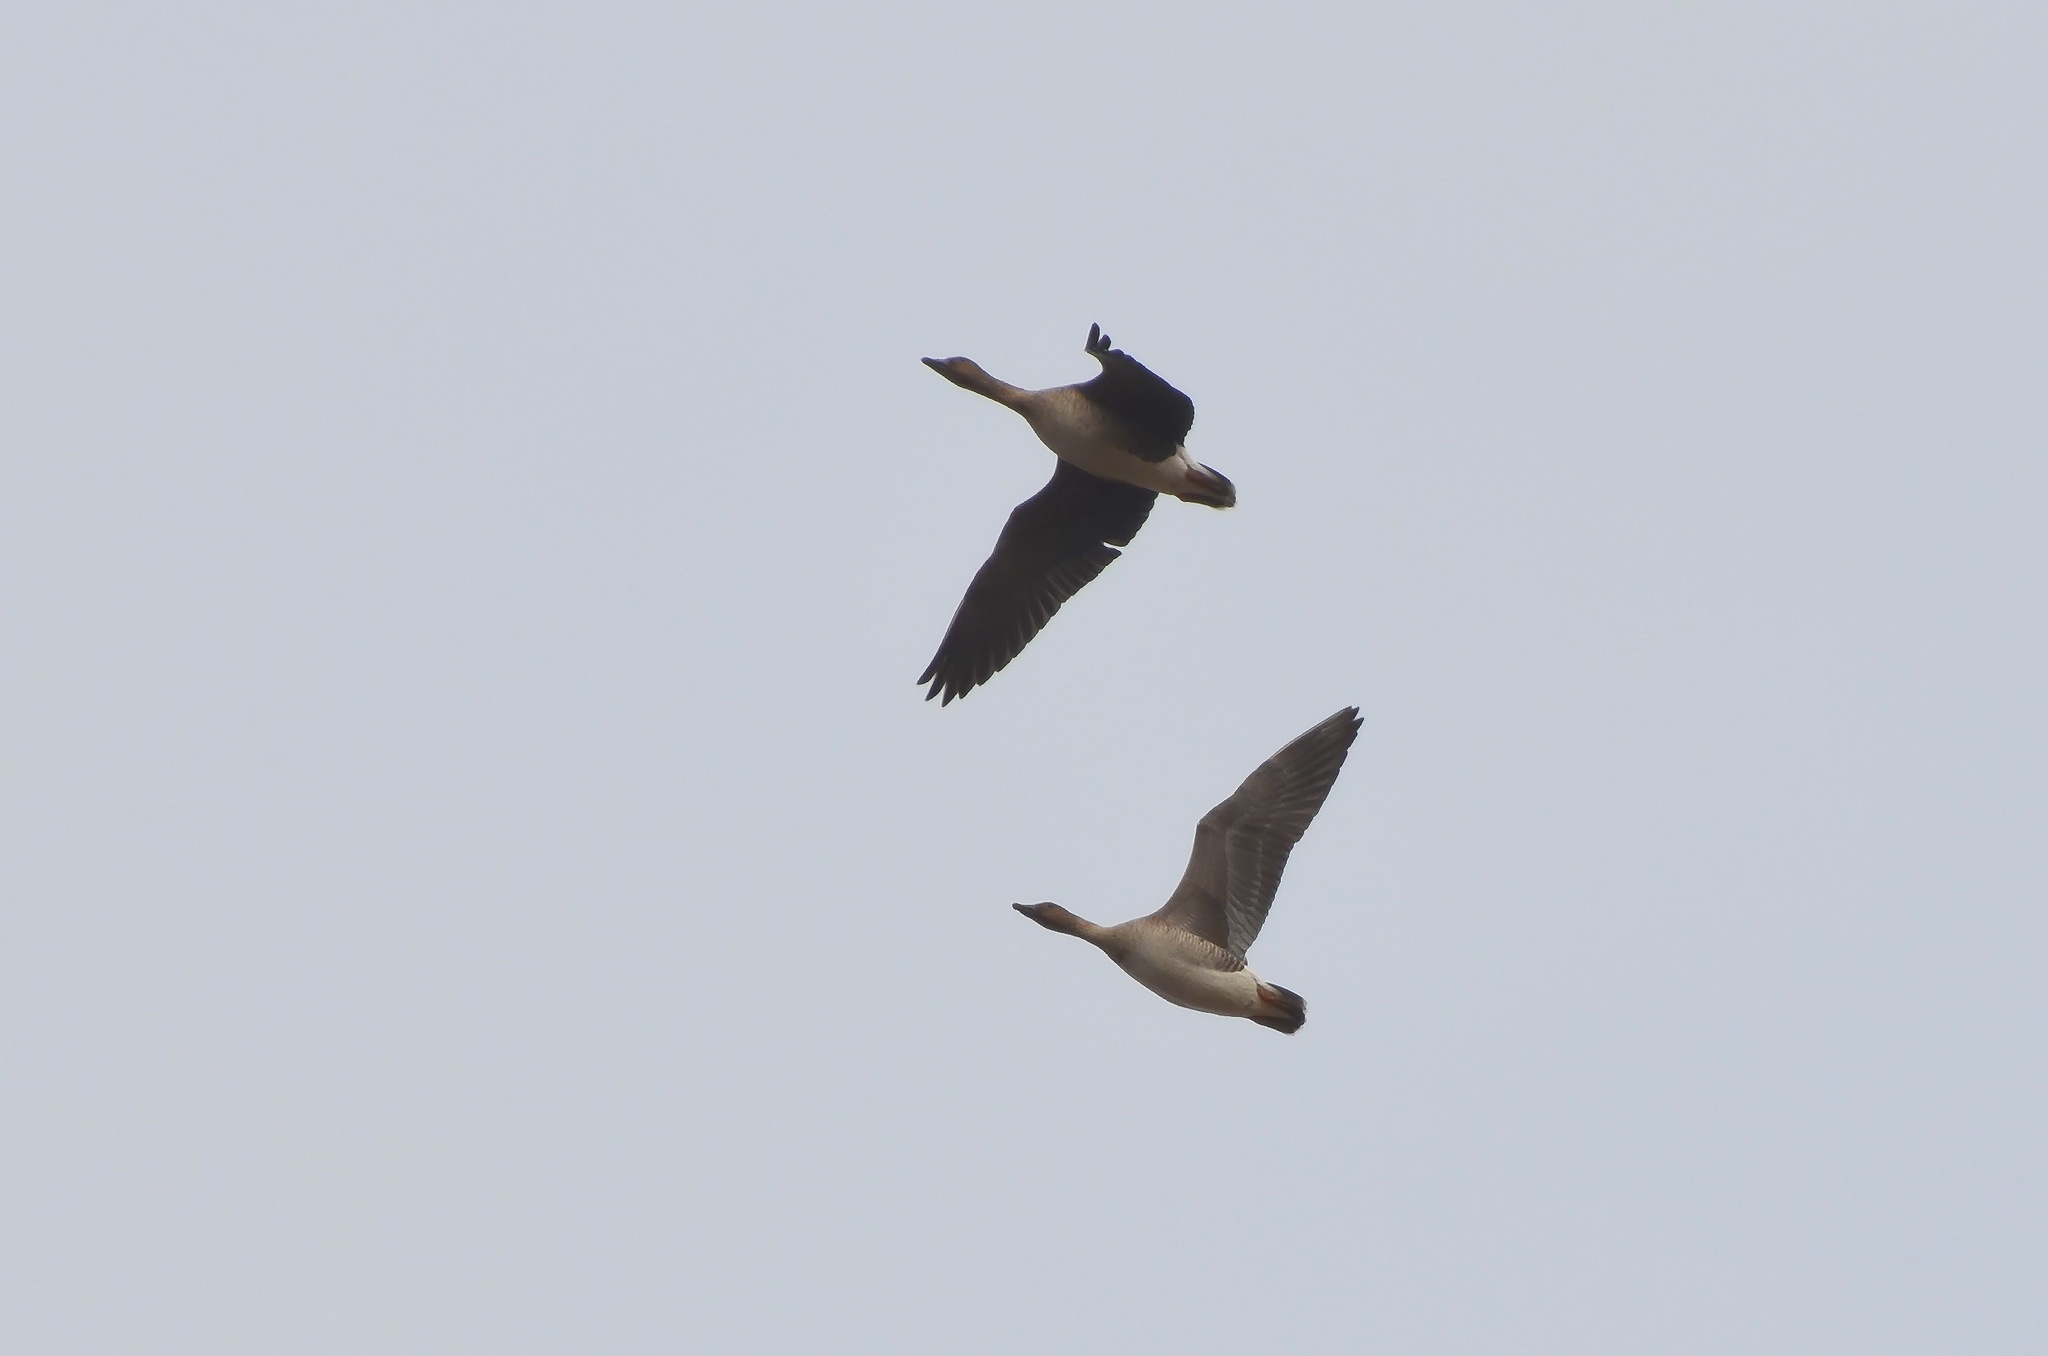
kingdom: Animalia
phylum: Chordata
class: Aves
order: Anseriformes
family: Anatidae
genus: Anser
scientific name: Anser fabalis
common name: Bean goose
